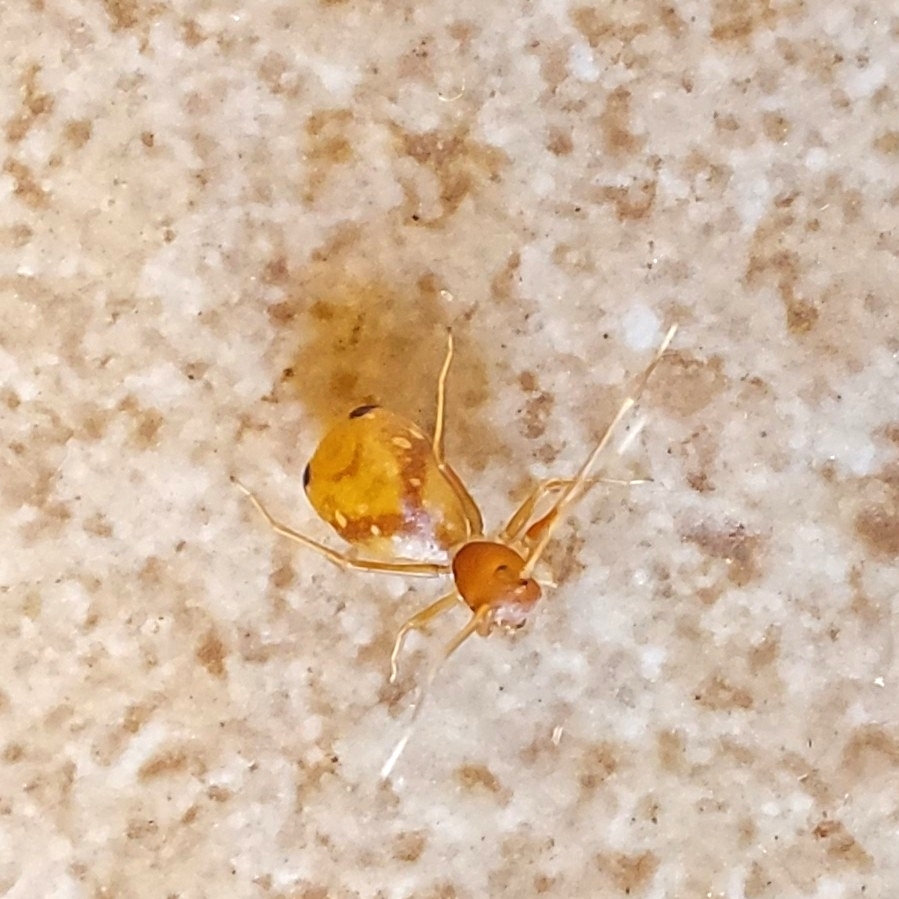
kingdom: Animalia
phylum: Arthropoda
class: Arachnida
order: Araneae
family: Thomisidae
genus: Amyciaea
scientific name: Amyciaea forticeps
